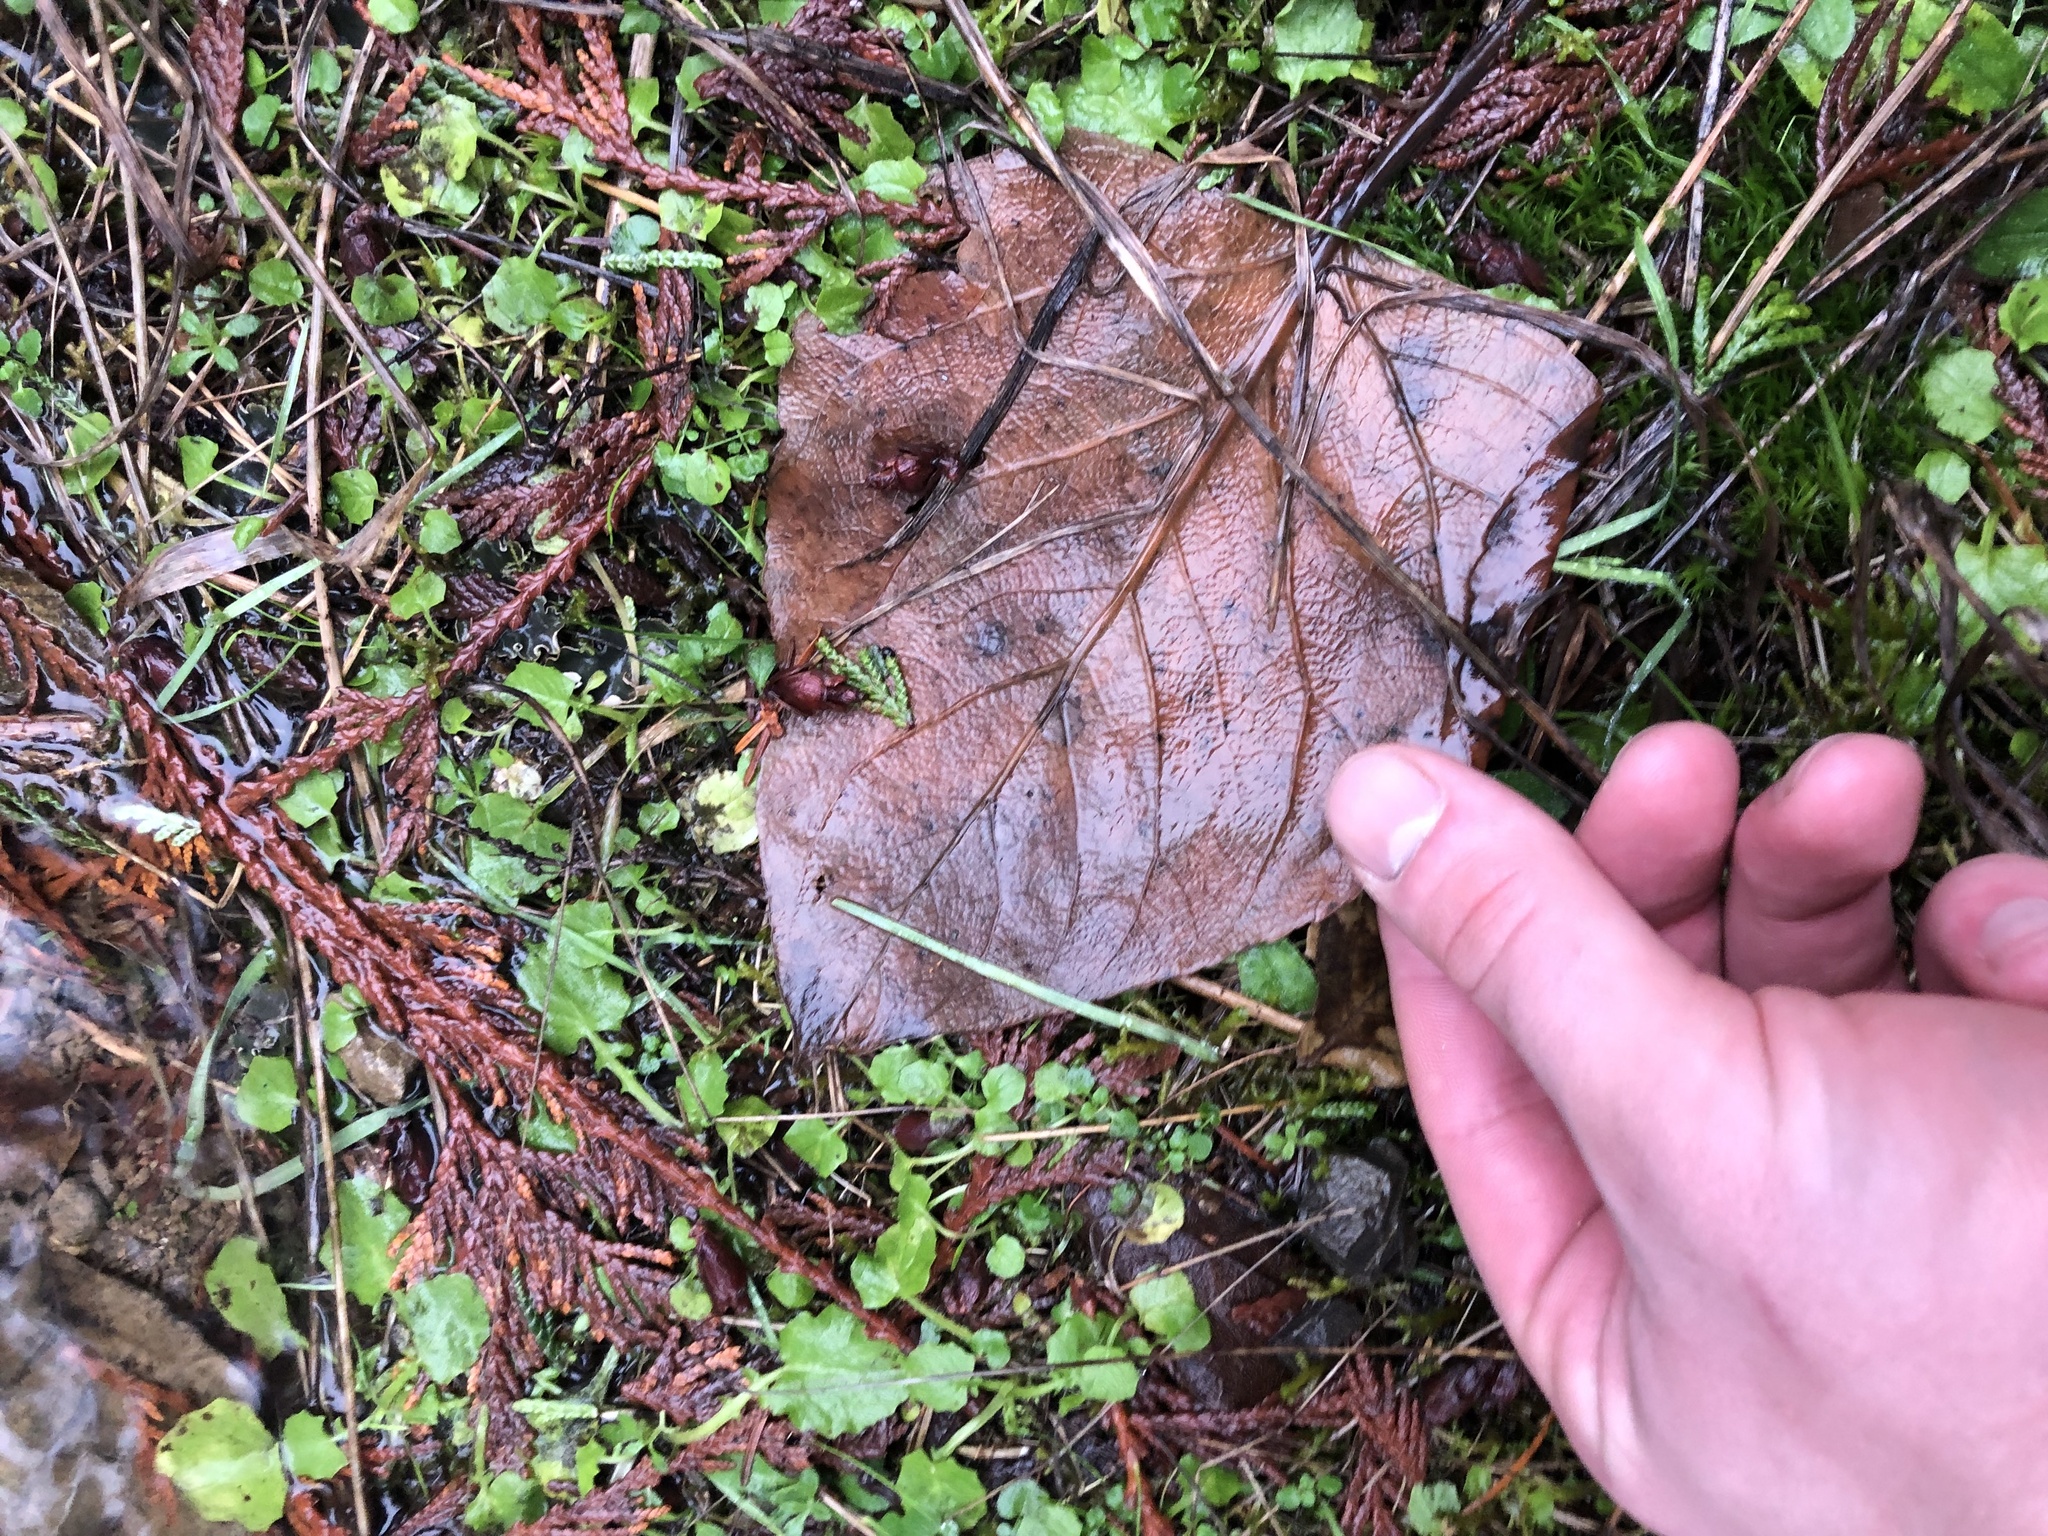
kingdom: Plantae
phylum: Tracheophyta
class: Magnoliopsida
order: Malpighiales
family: Salicaceae
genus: Populus
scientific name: Populus trichocarpa
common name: Black cottonwood
